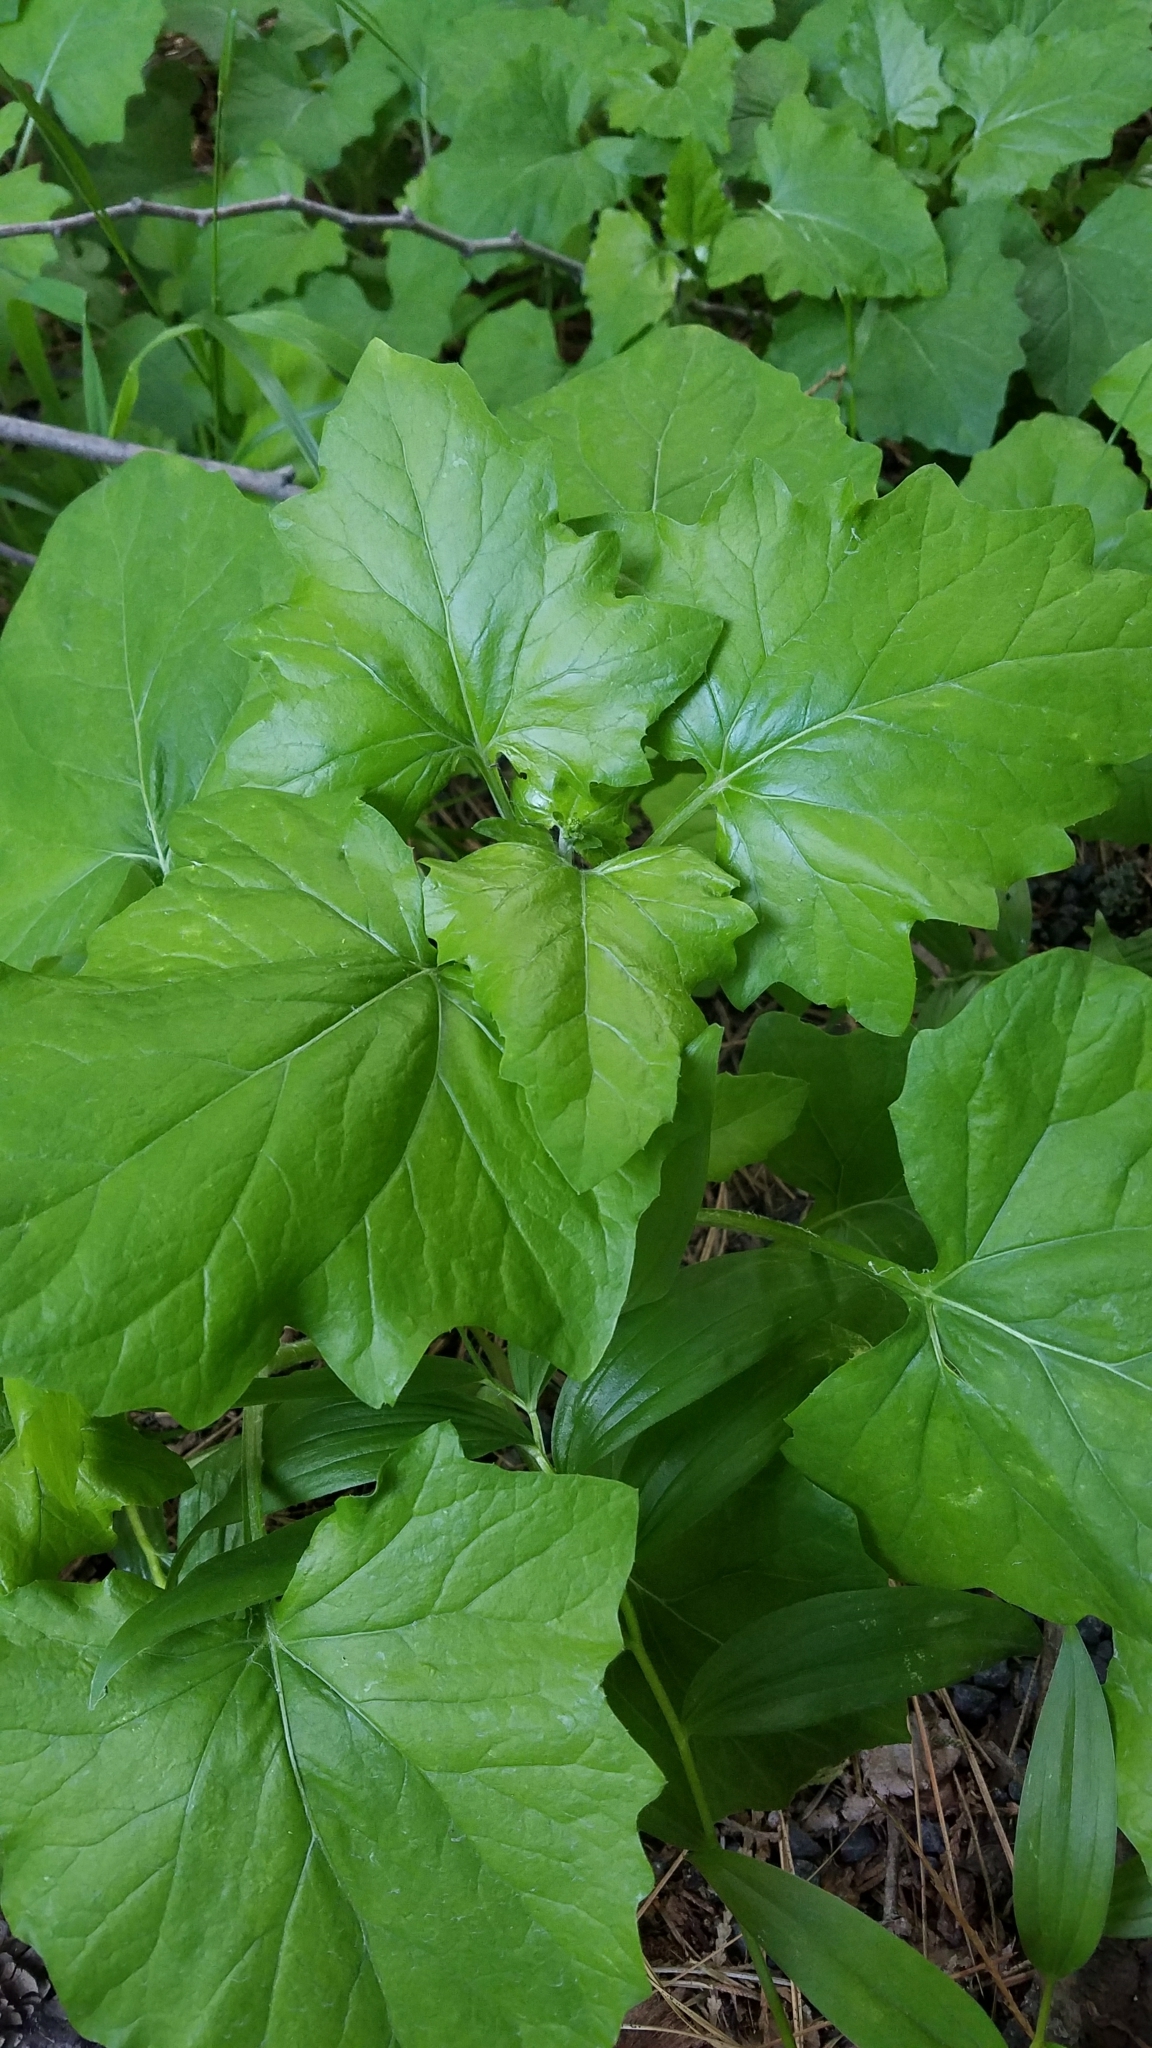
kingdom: Plantae
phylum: Tracheophyta
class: Magnoliopsida
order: Asterales
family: Asteraceae
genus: Adenocaulon
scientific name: Adenocaulon bicolor
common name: Trailplant
